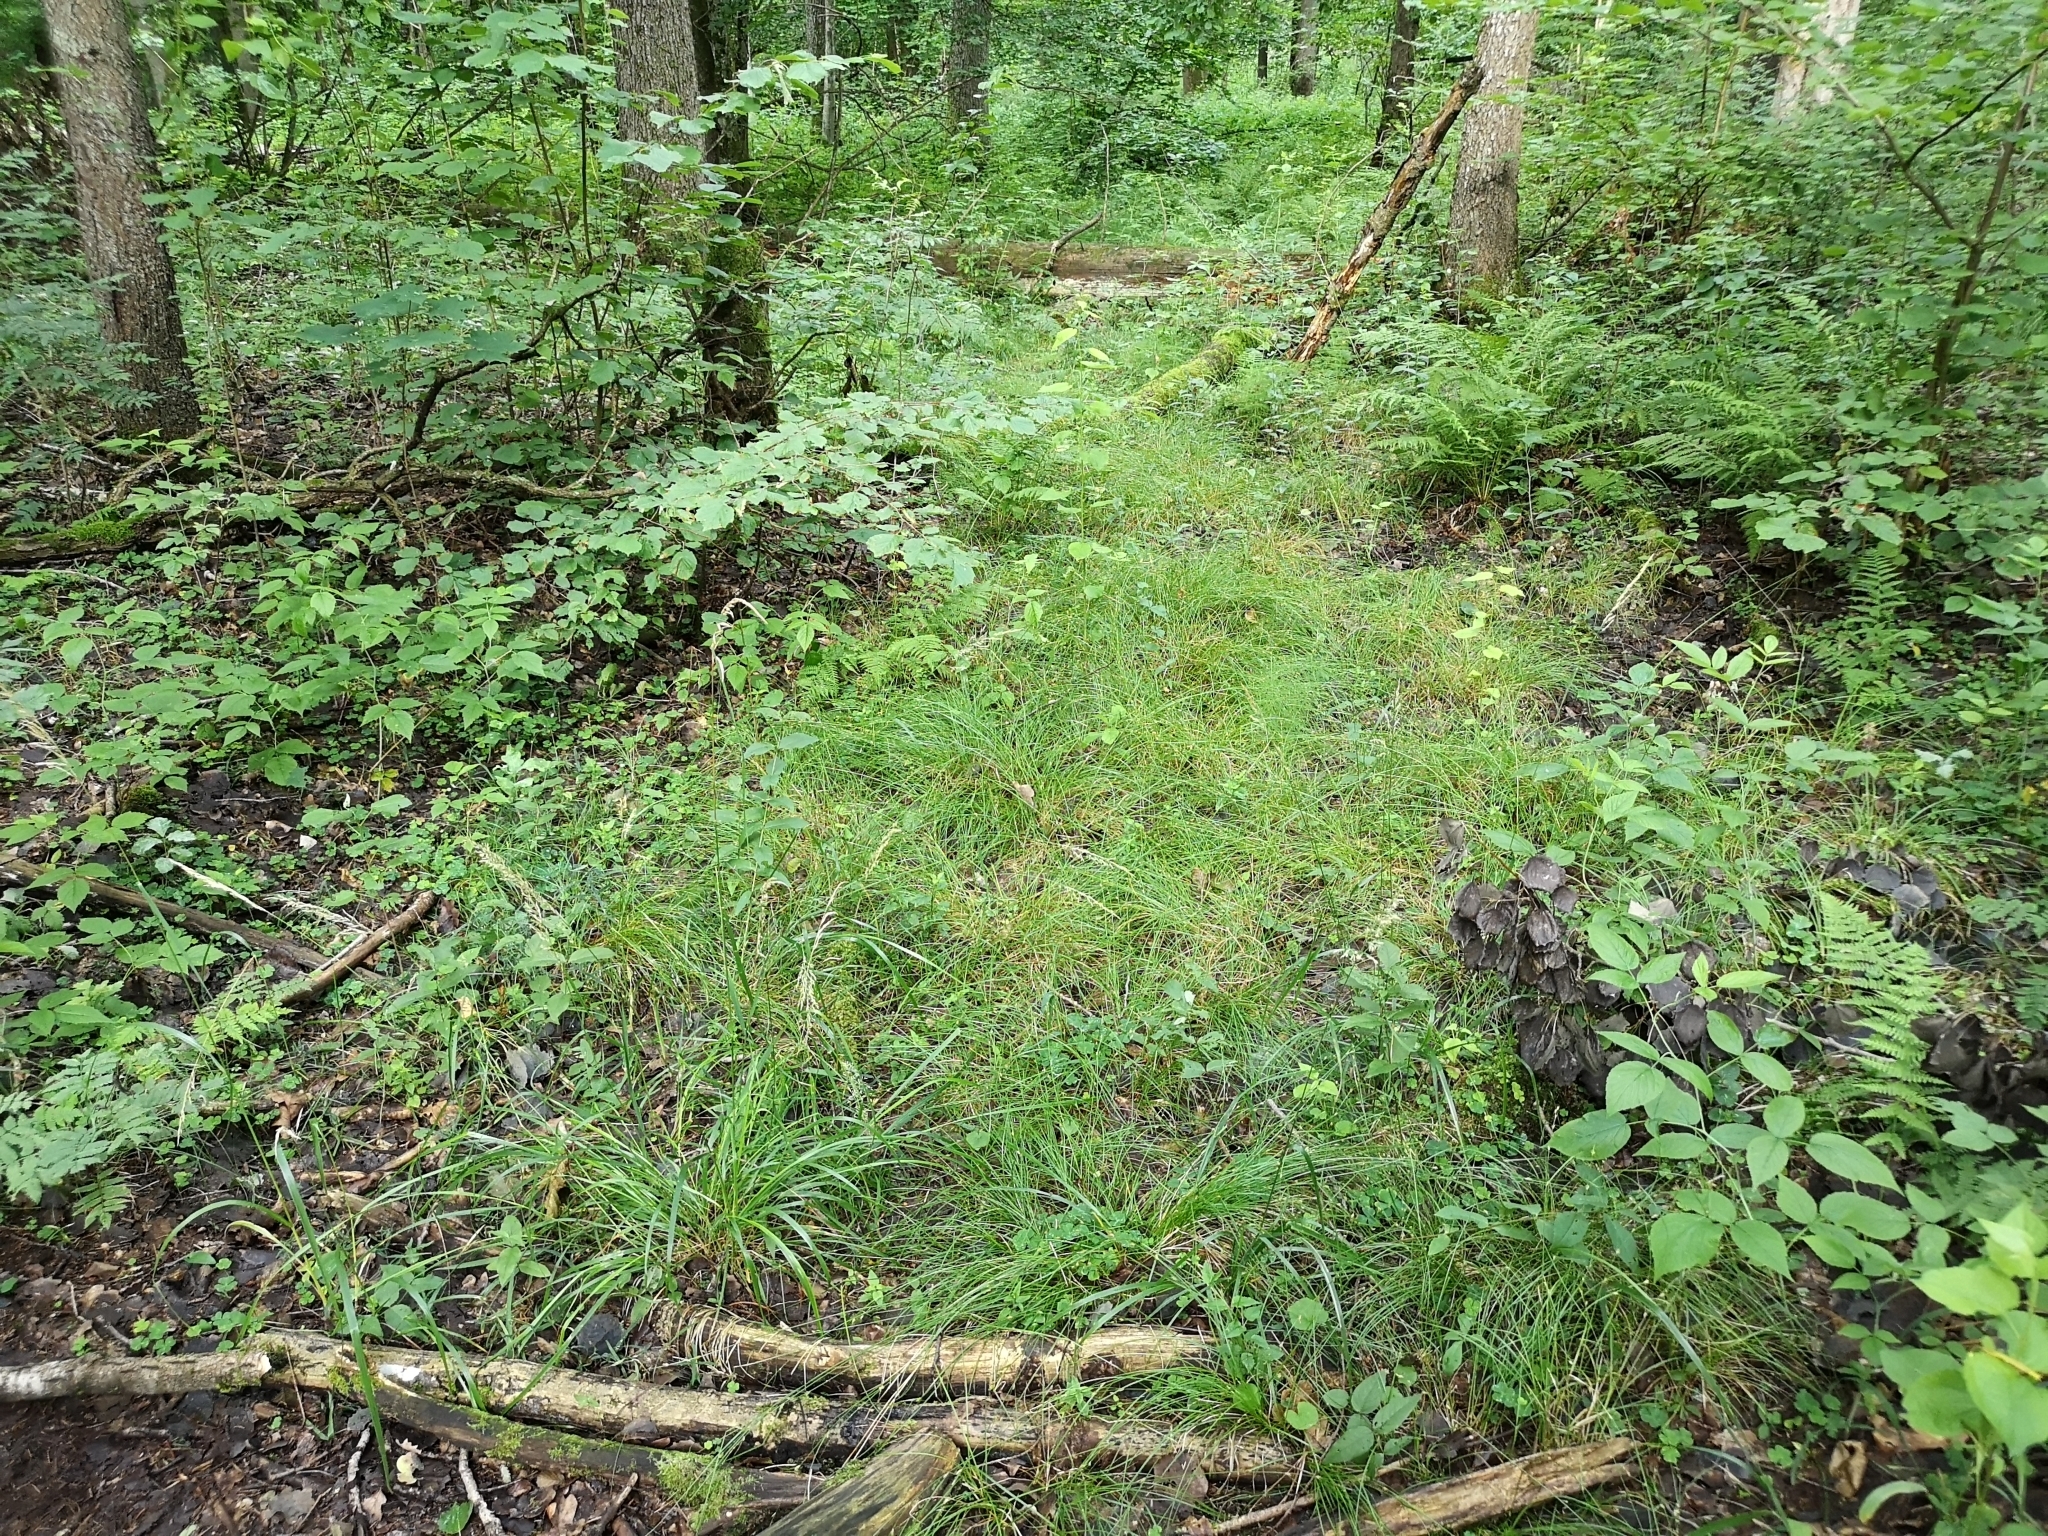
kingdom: Plantae
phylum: Tracheophyta
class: Liliopsida
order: Poales
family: Cyperaceae
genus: Carex
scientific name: Carex remota
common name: Remote sedge
